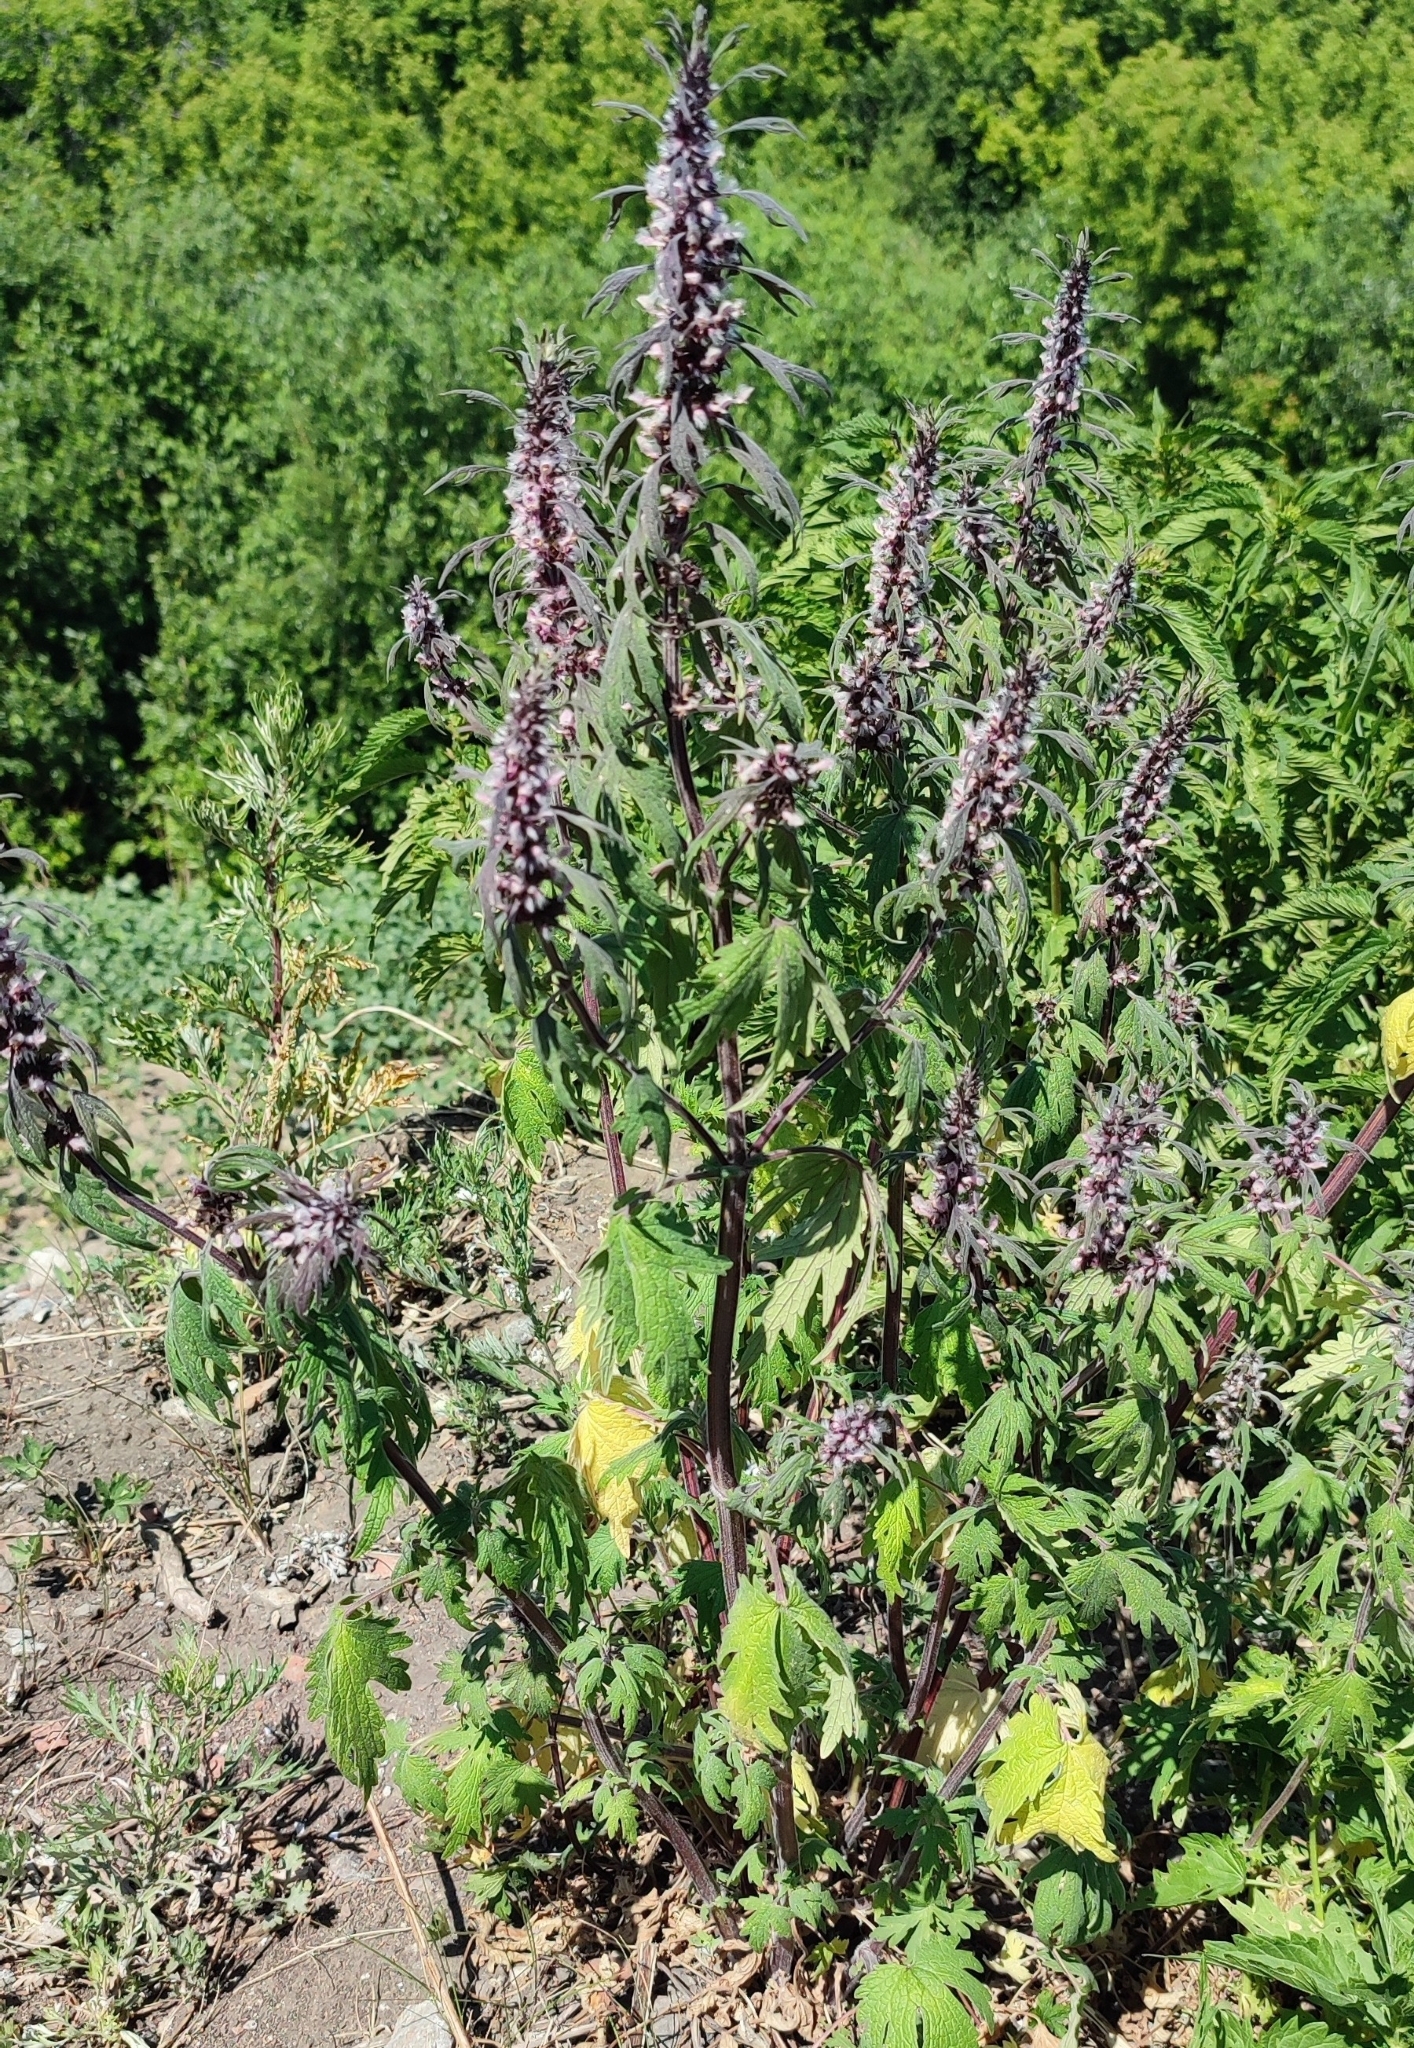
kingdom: Plantae
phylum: Tracheophyta
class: Magnoliopsida
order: Lamiales
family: Lamiaceae
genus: Leonurus
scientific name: Leonurus quinquelobatus
